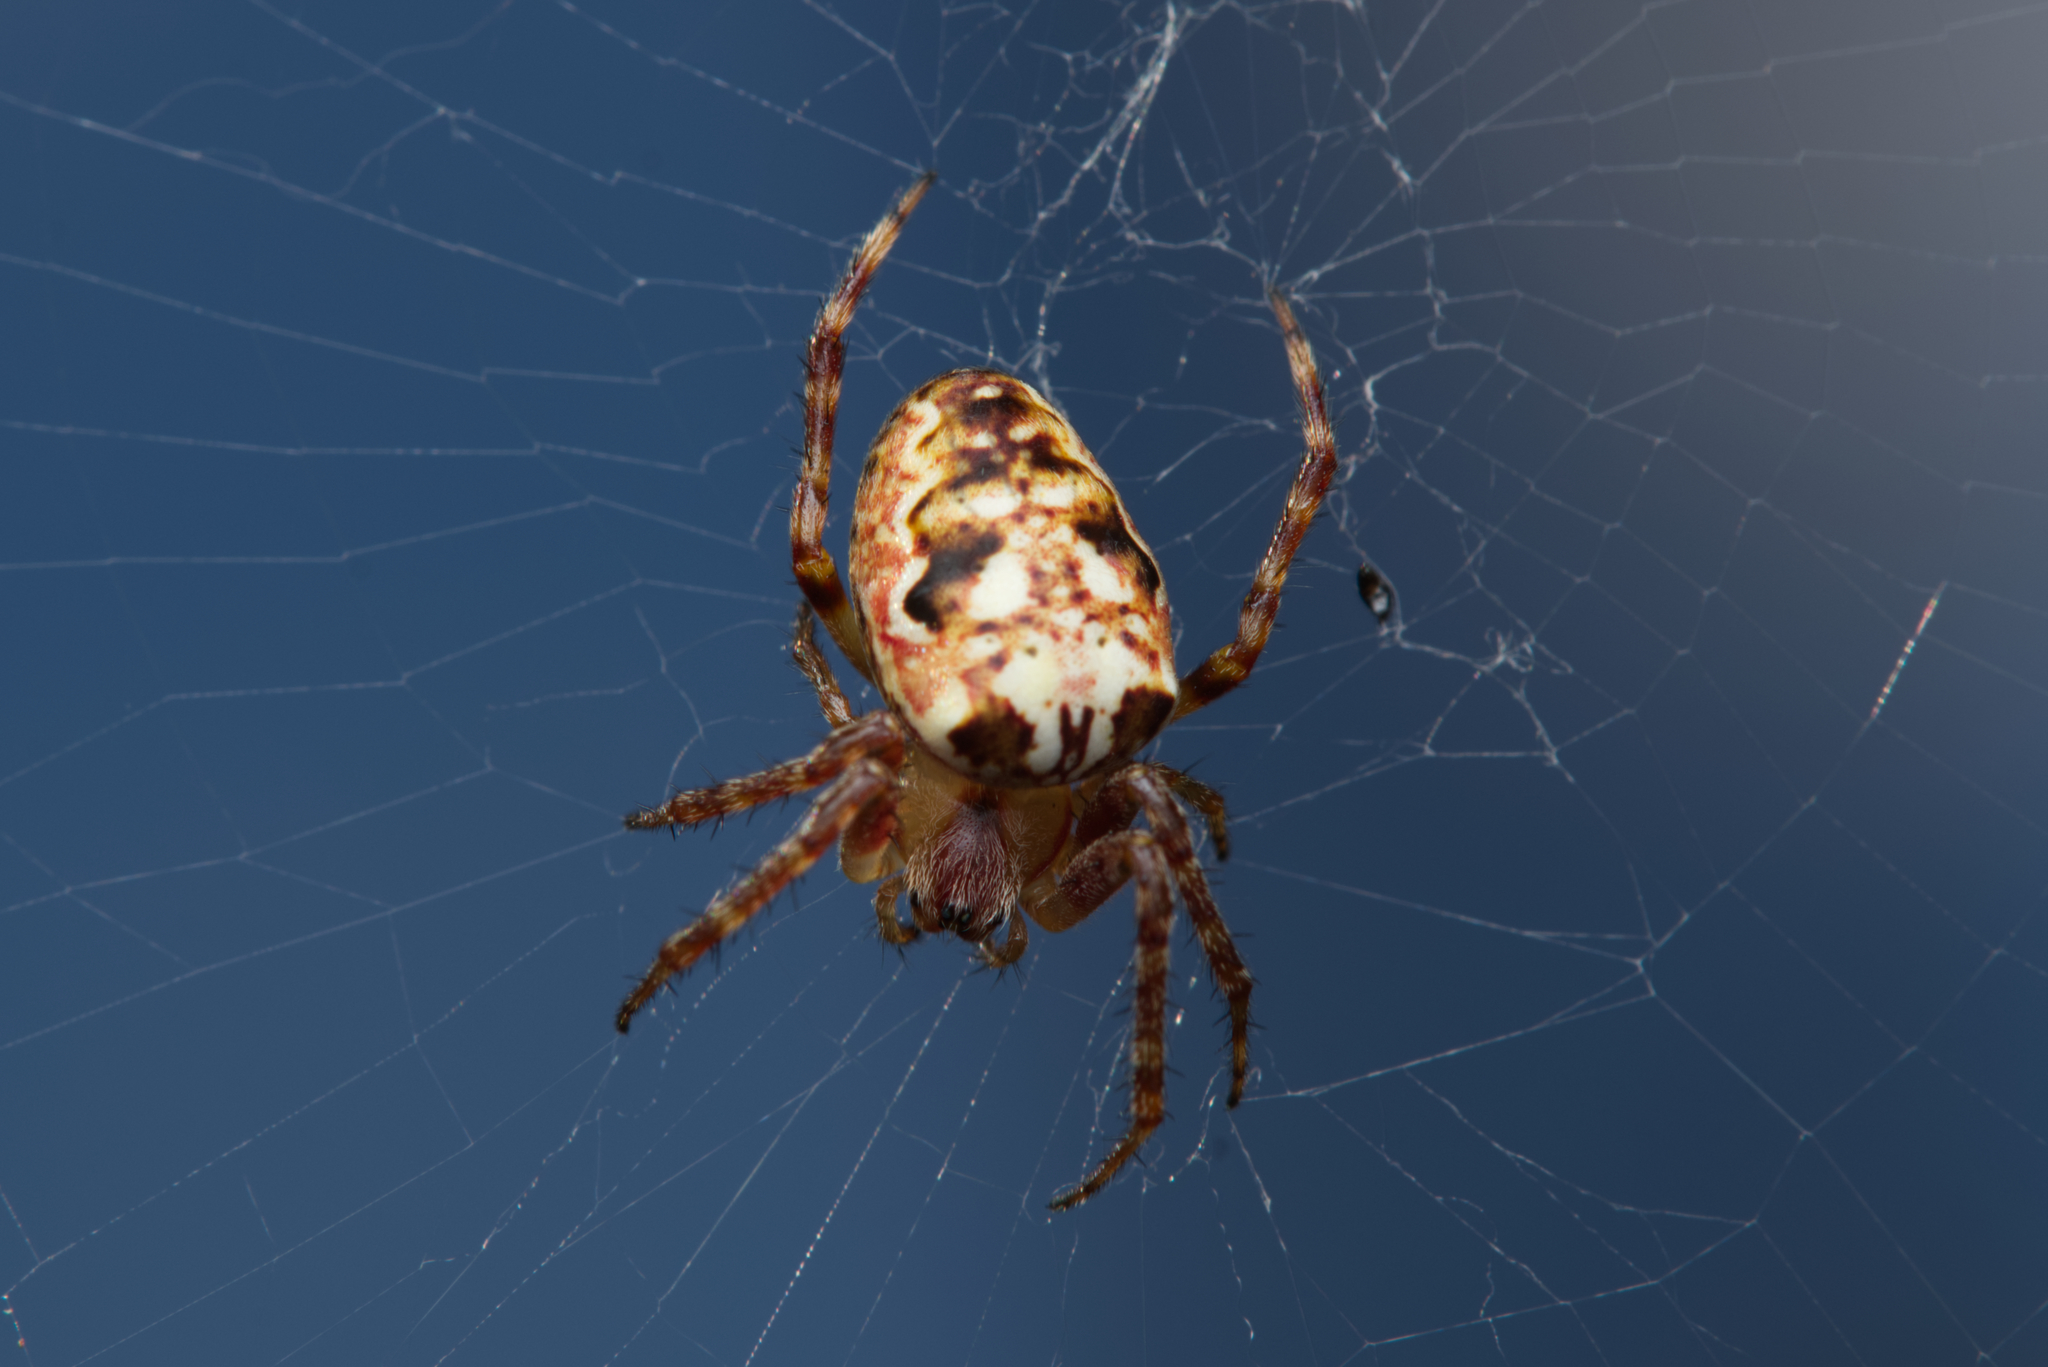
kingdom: Animalia
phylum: Arthropoda
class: Arachnida
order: Araneae
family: Araneidae
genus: Plebs
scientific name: Plebs eburnus
